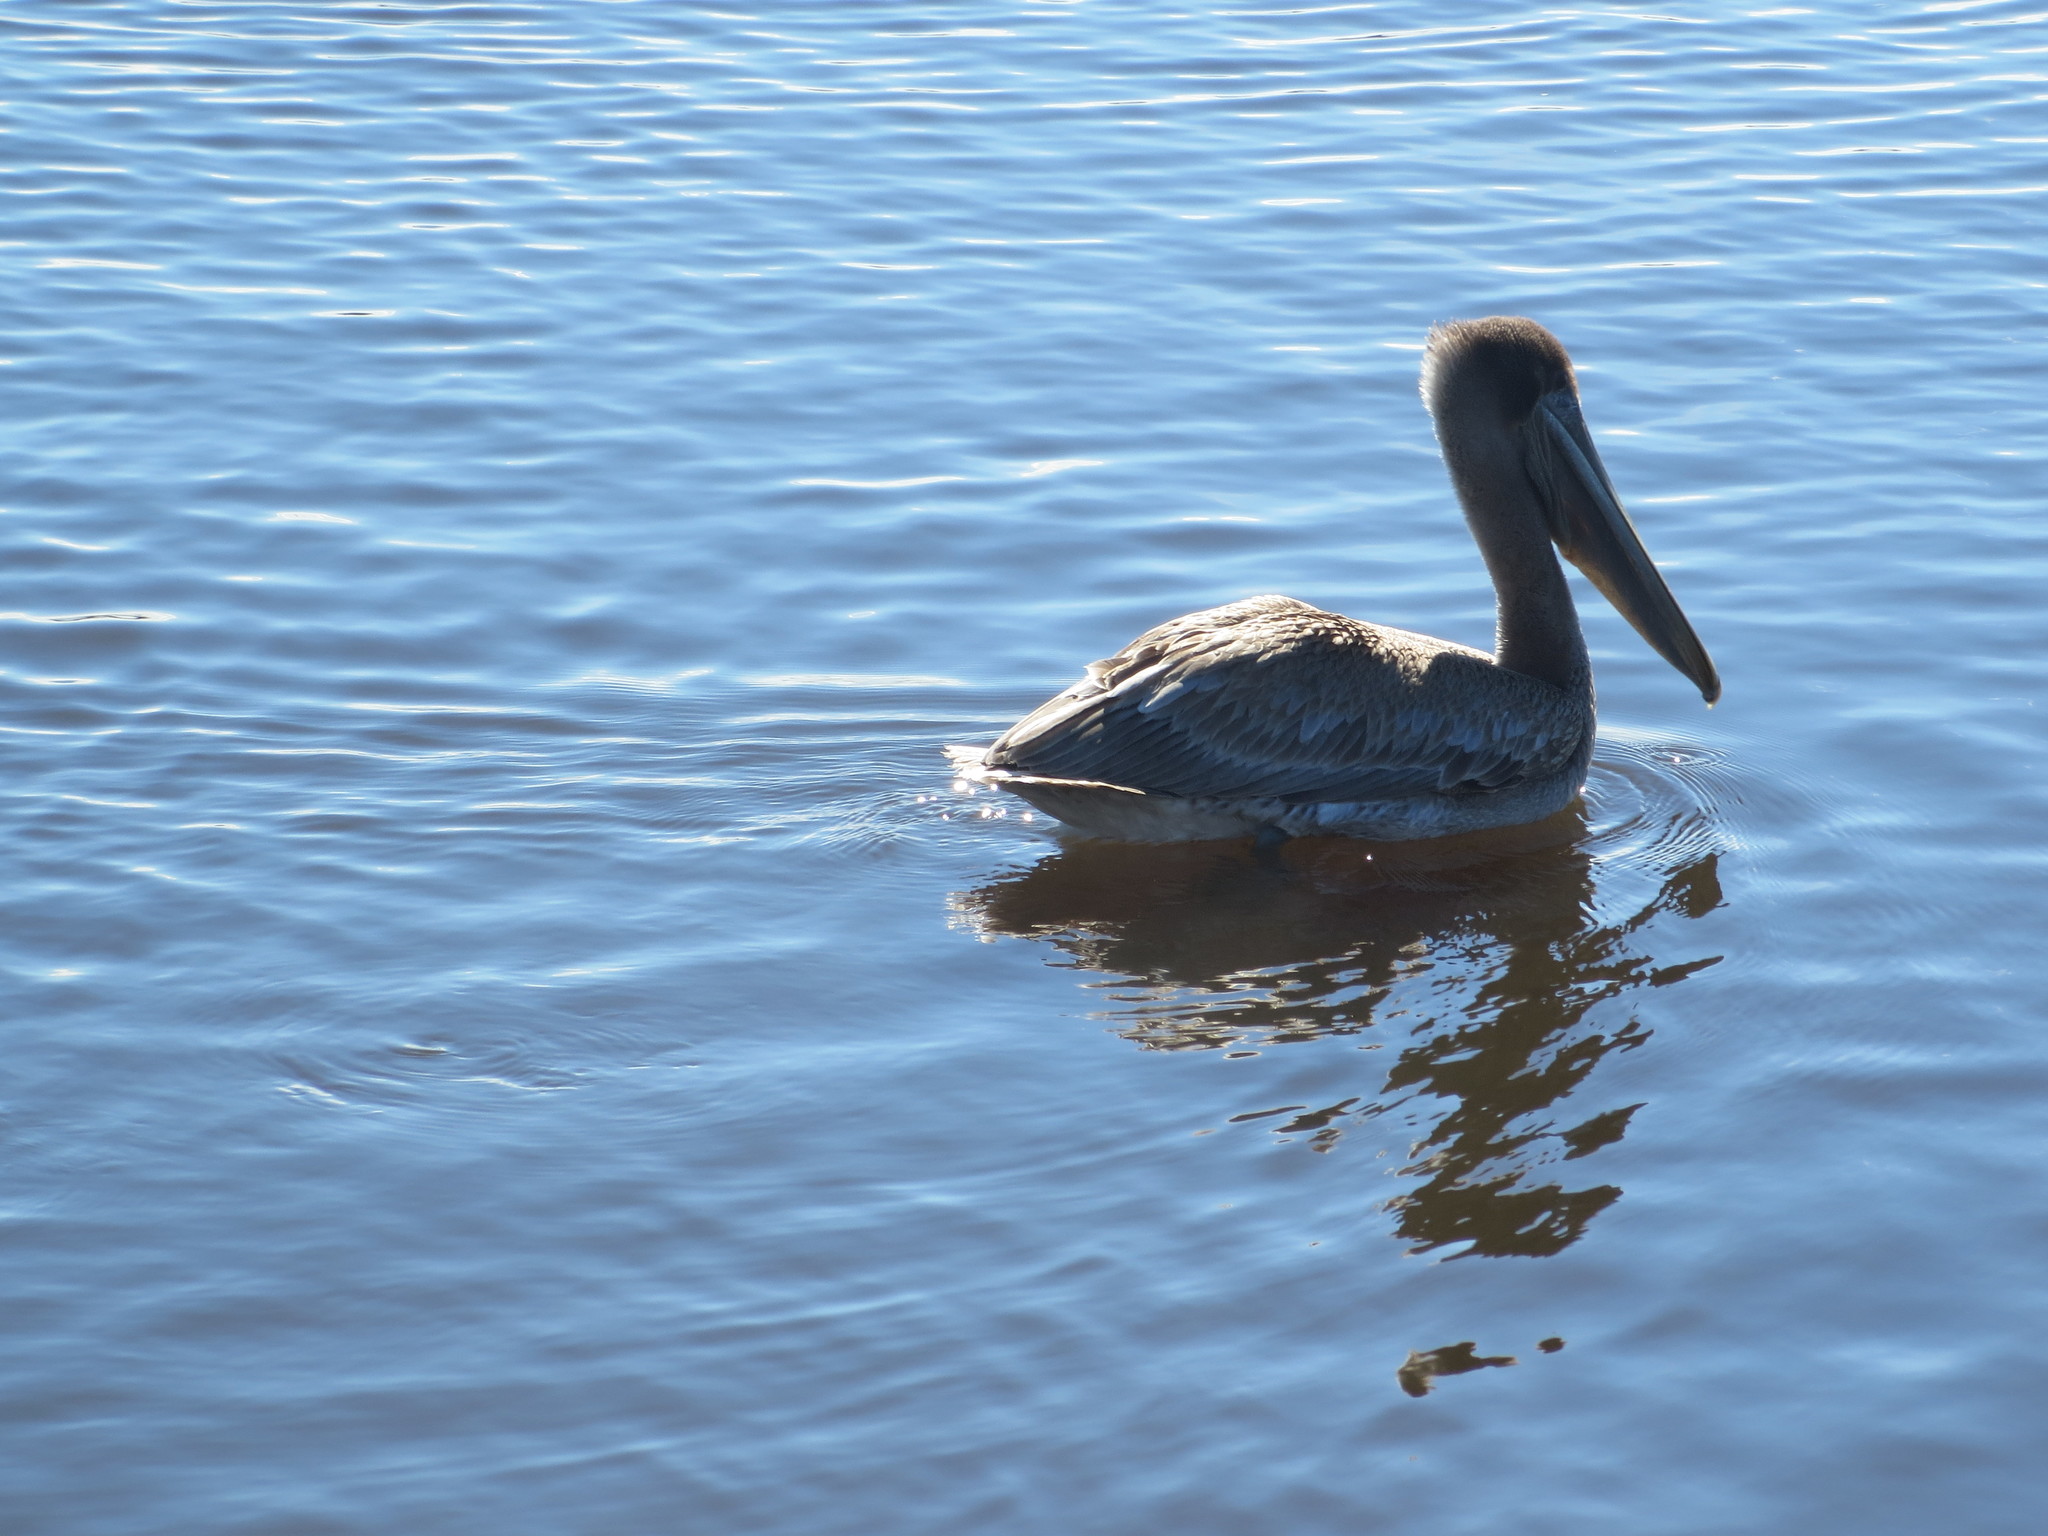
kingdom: Animalia
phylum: Chordata
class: Aves
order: Pelecaniformes
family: Pelecanidae
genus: Pelecanus
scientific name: Pelecanus occidentalis
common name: Brown pelican
